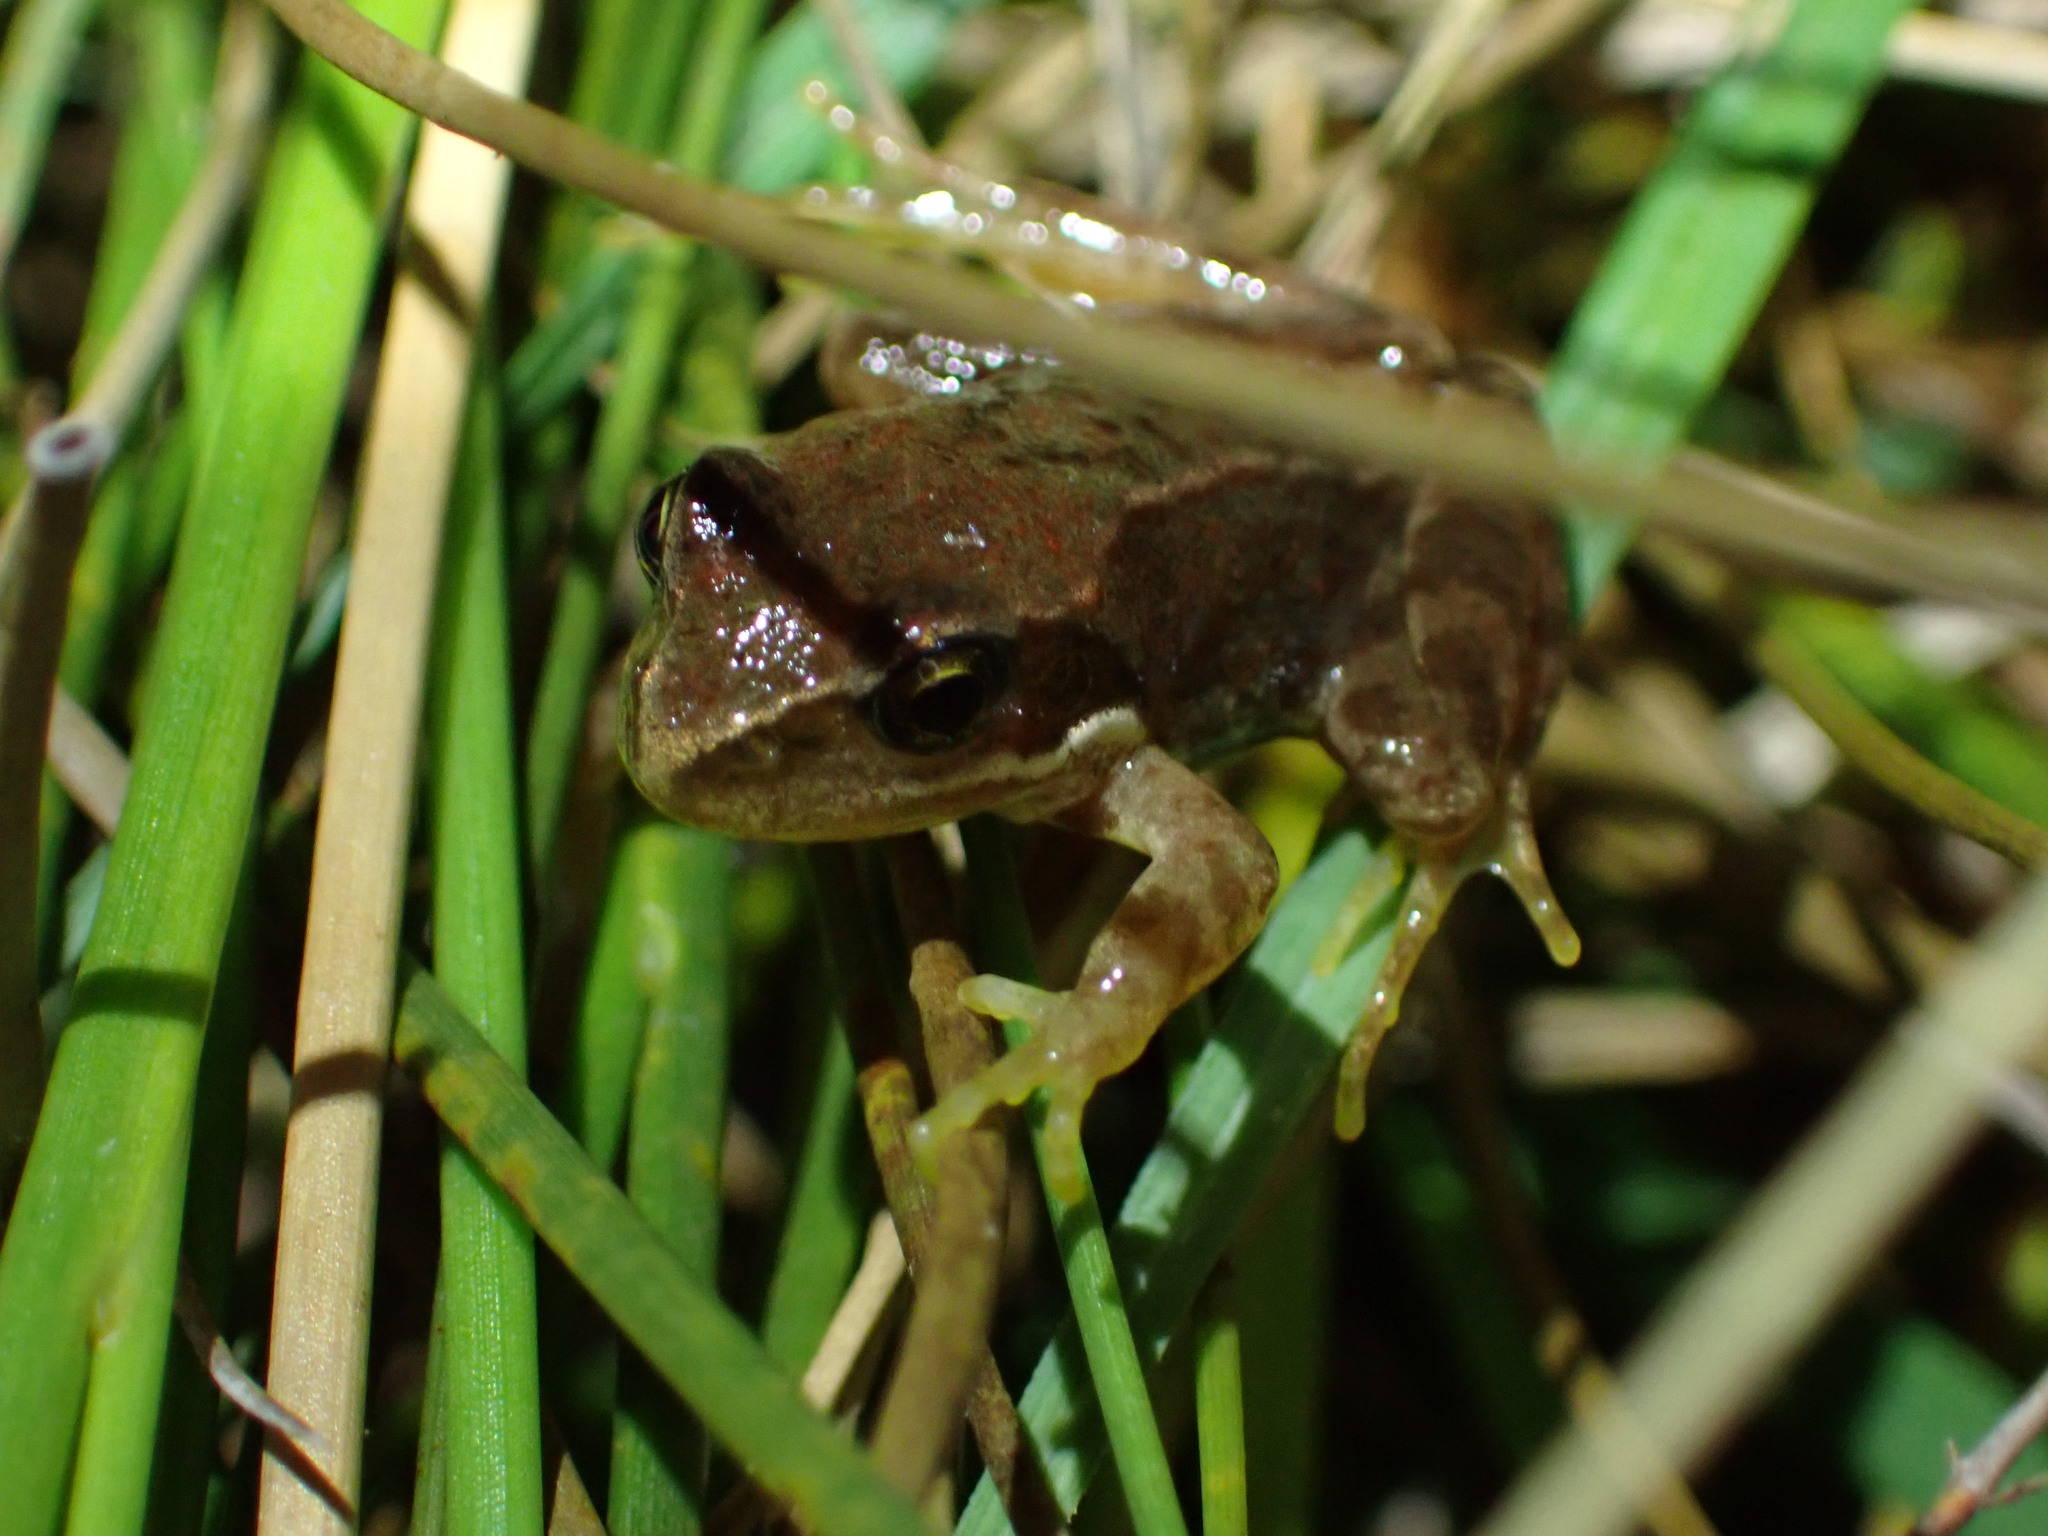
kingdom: Animalia
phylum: Chordata
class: Amphibia
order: Anura
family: Ranidae
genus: Rana
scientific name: Rana temporaria
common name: Common frog
